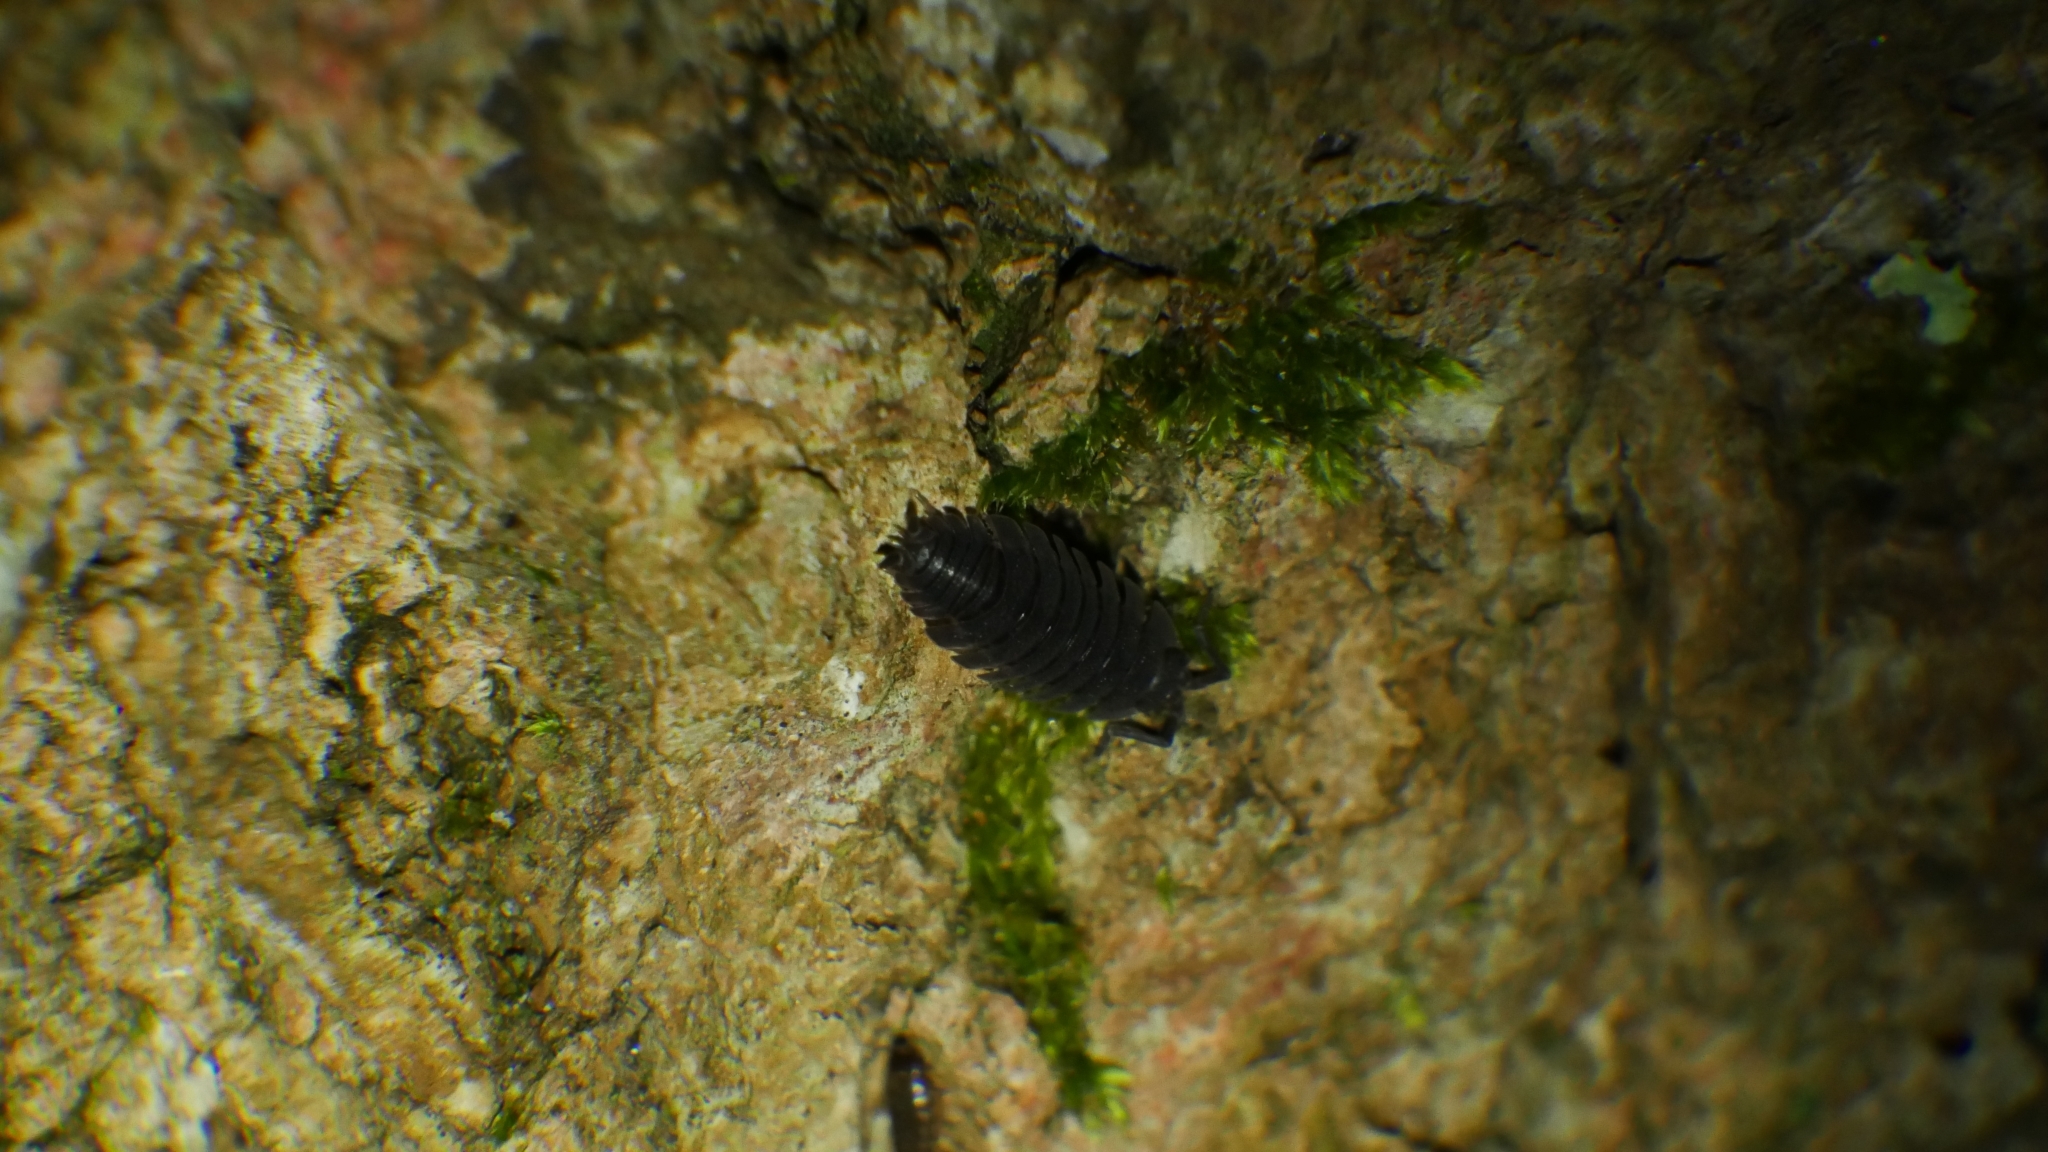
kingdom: Animalia
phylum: Arthropoda
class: Malacostraca
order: Isopoda
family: Porcellionidae
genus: Porcellio
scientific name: Porcellio scaber
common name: Common rough woodlouse
